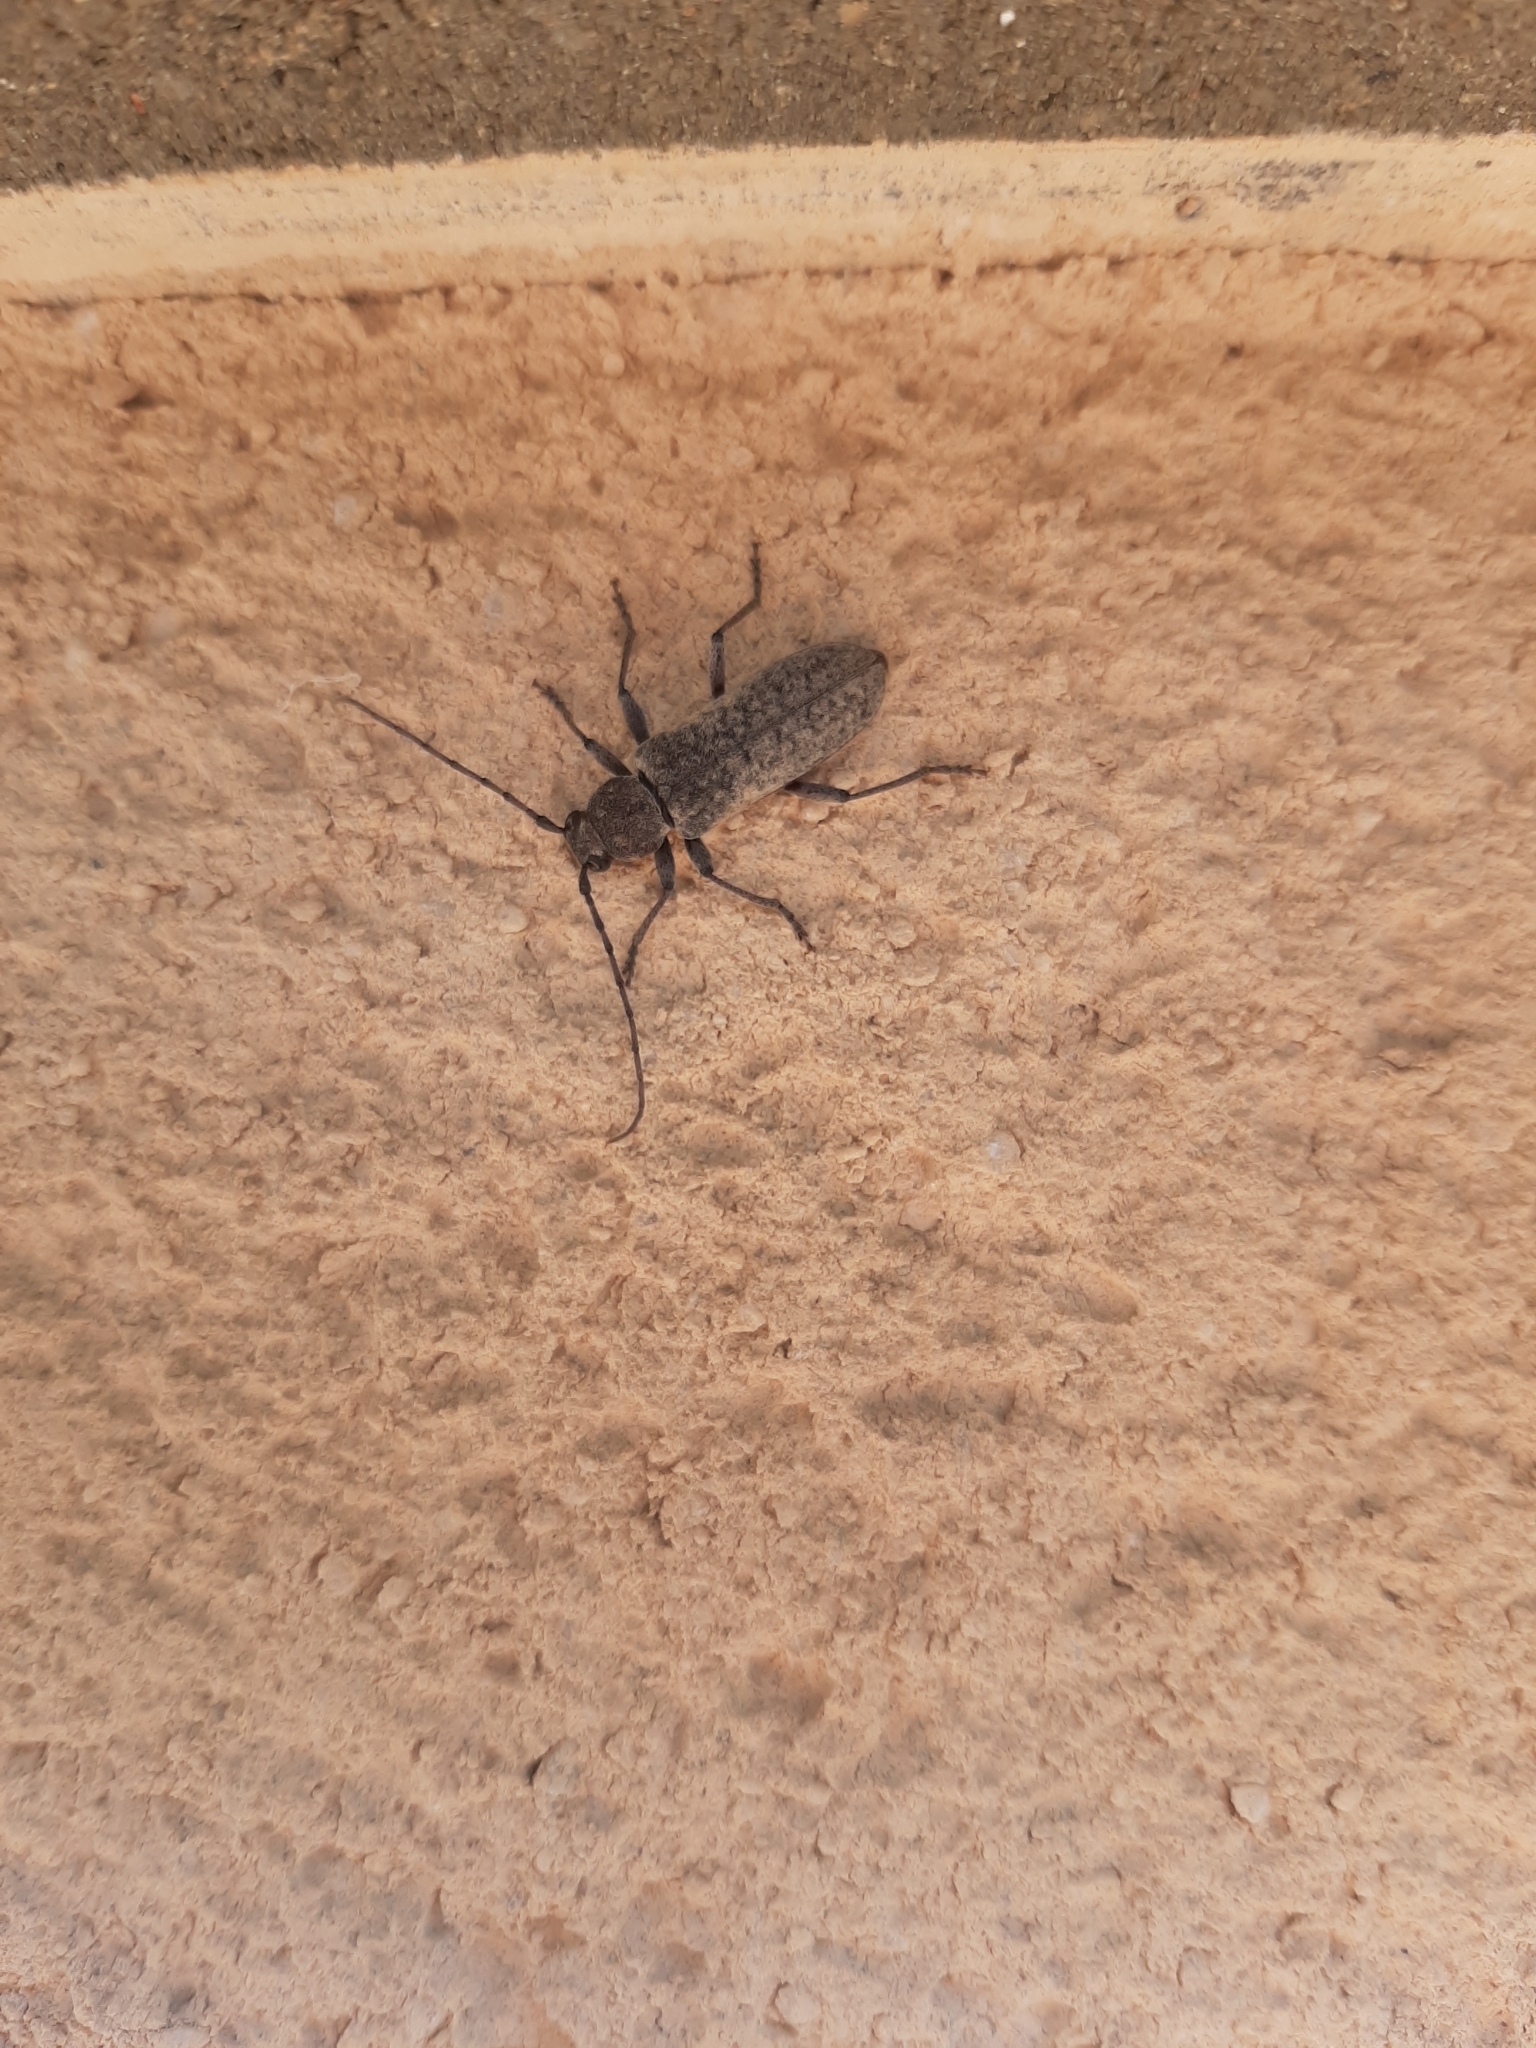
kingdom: Animalia
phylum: Arthropoda
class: Insecta
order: Coleoptera
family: Cerambycidae
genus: Trichoferus
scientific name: Trichoferus griseus
